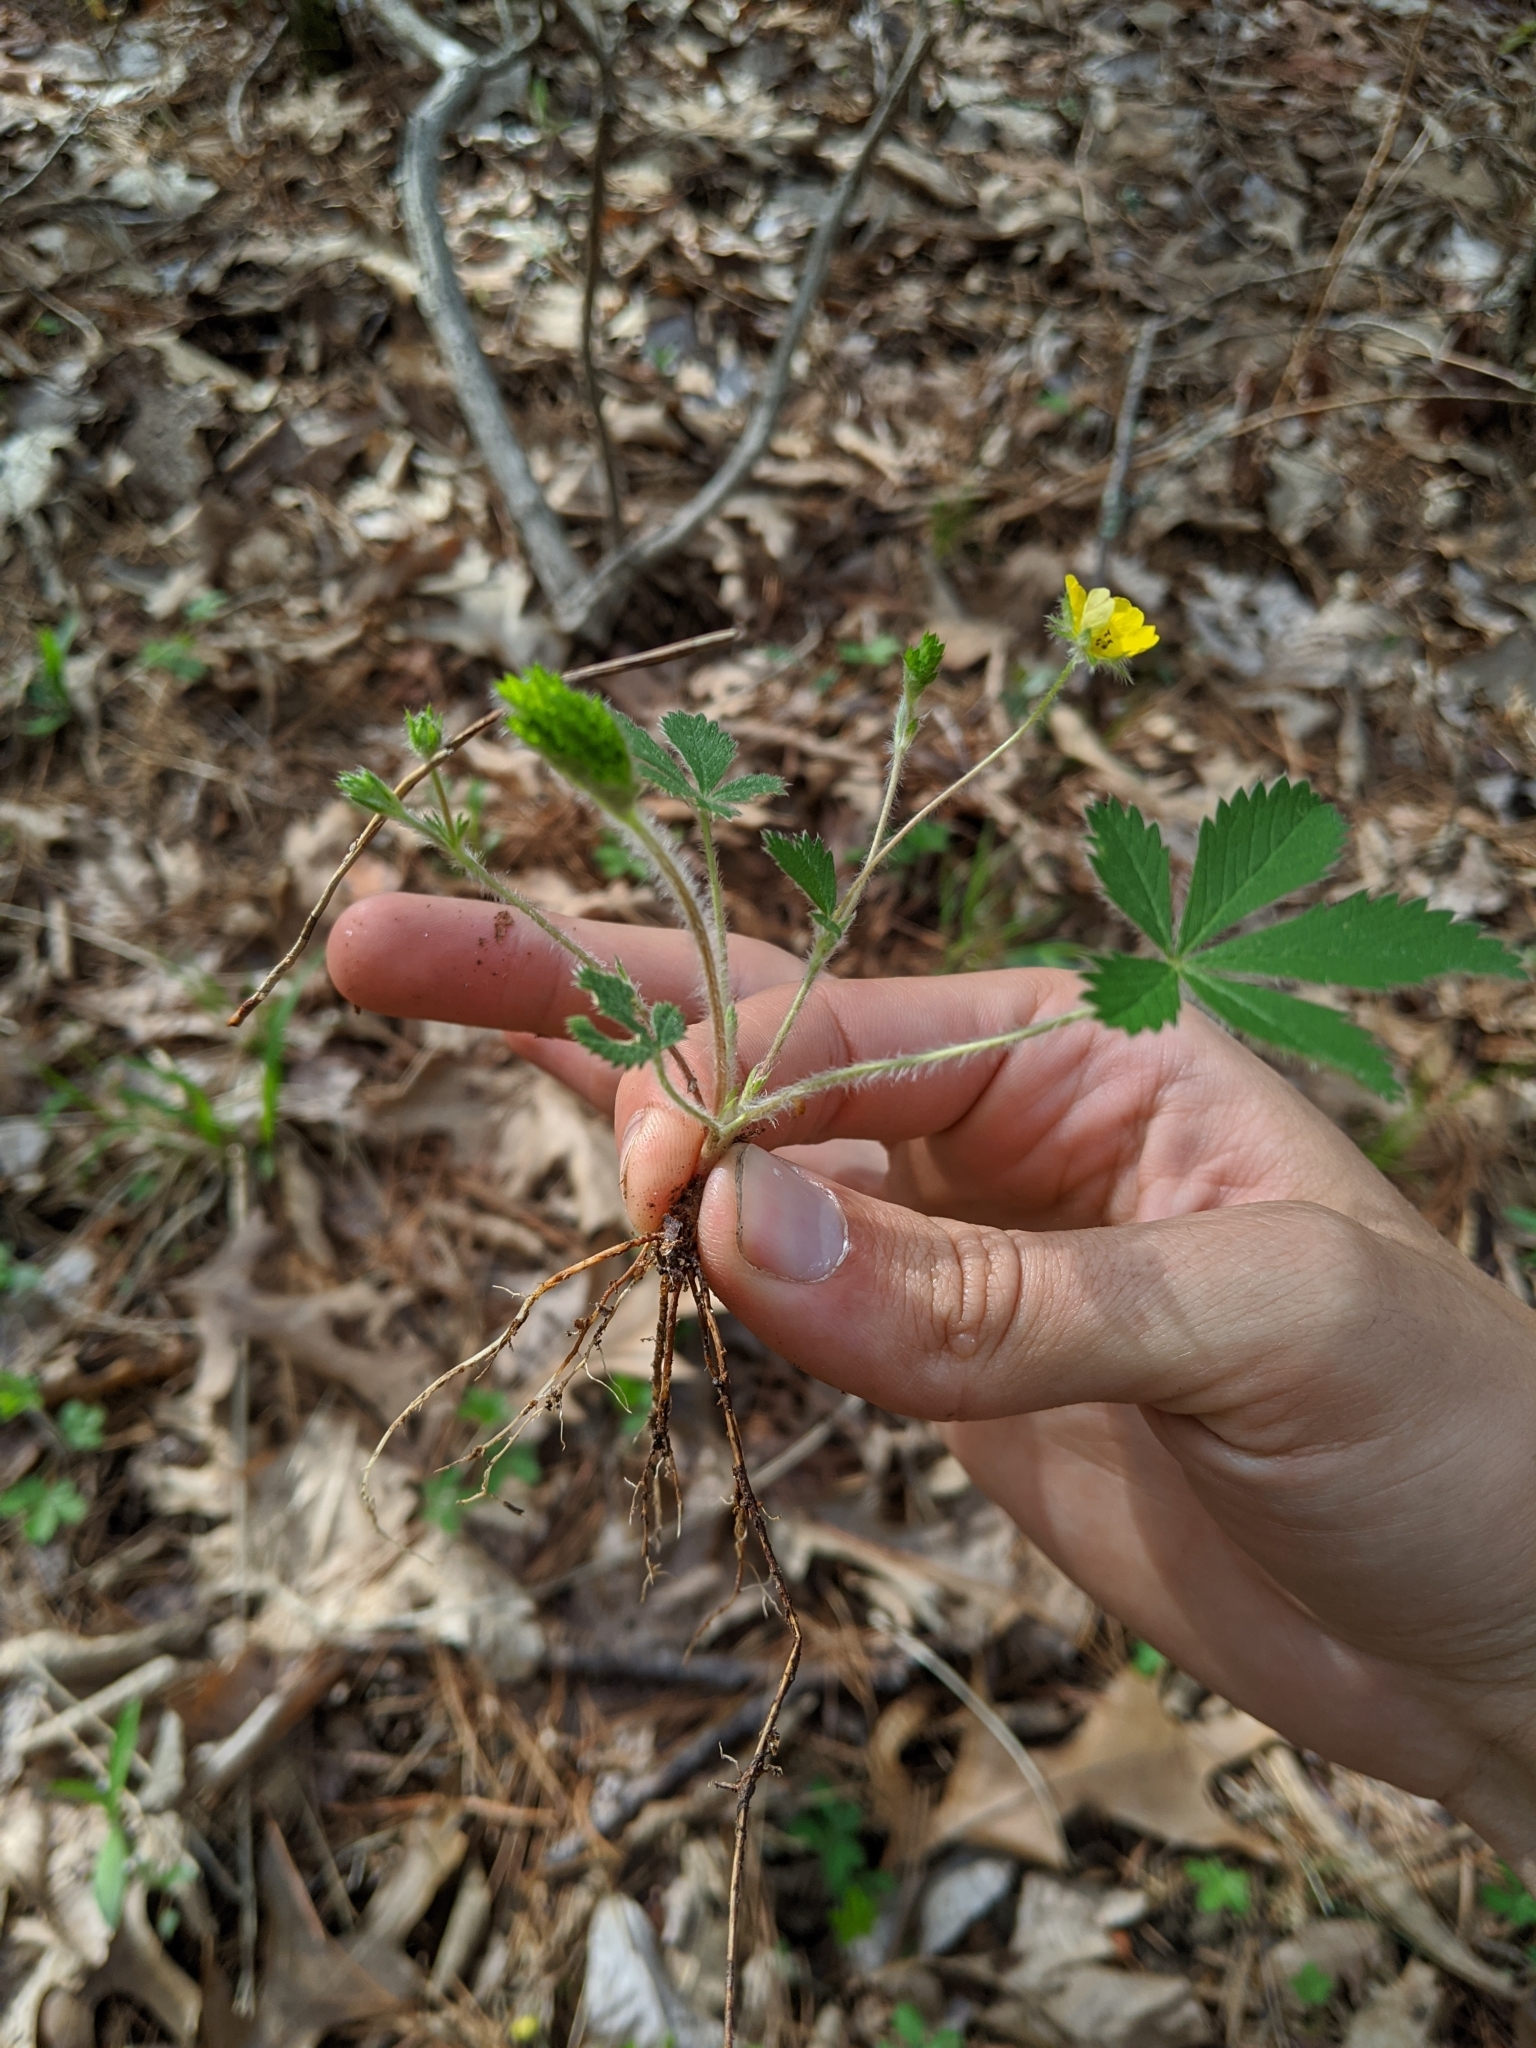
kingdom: Plantae
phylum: Tracheophyta
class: Magnoliopsida
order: Rosales
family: Rosaceae
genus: Potentilla
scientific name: Potentilla canadensis
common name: Canada cinquefoil
